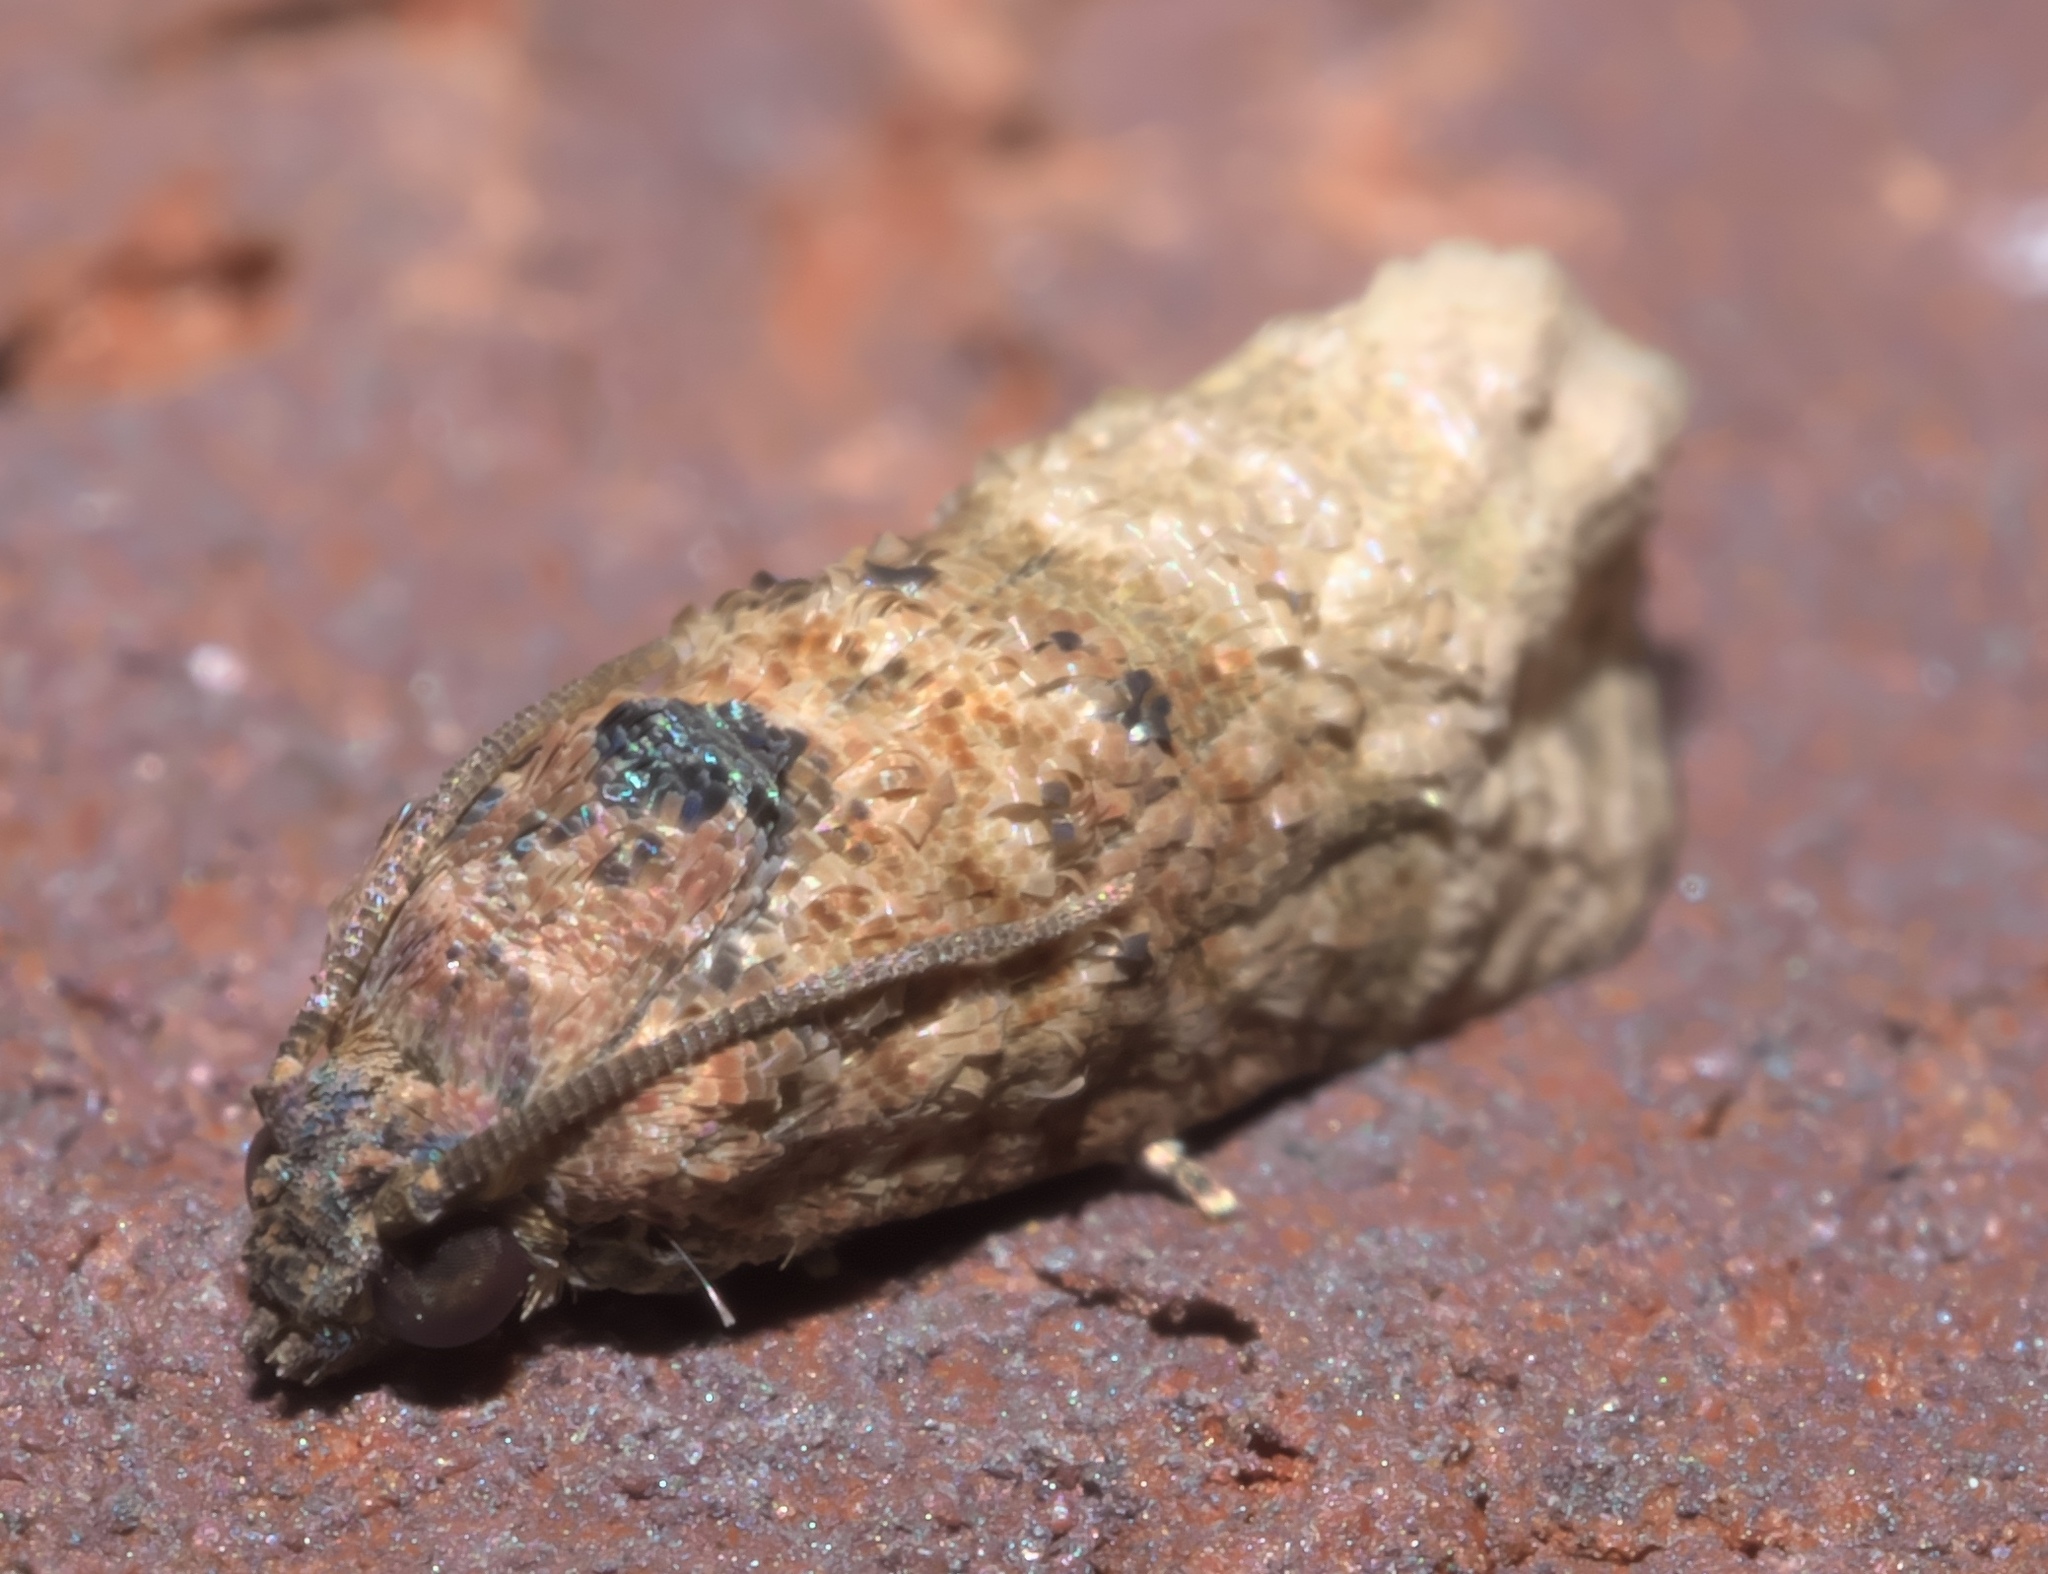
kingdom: Animalia
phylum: Arthropoda
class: Insecta
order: Lepidoptera
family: Tortricidae
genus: Ecdytolopha
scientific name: Ecdytolopha mana
